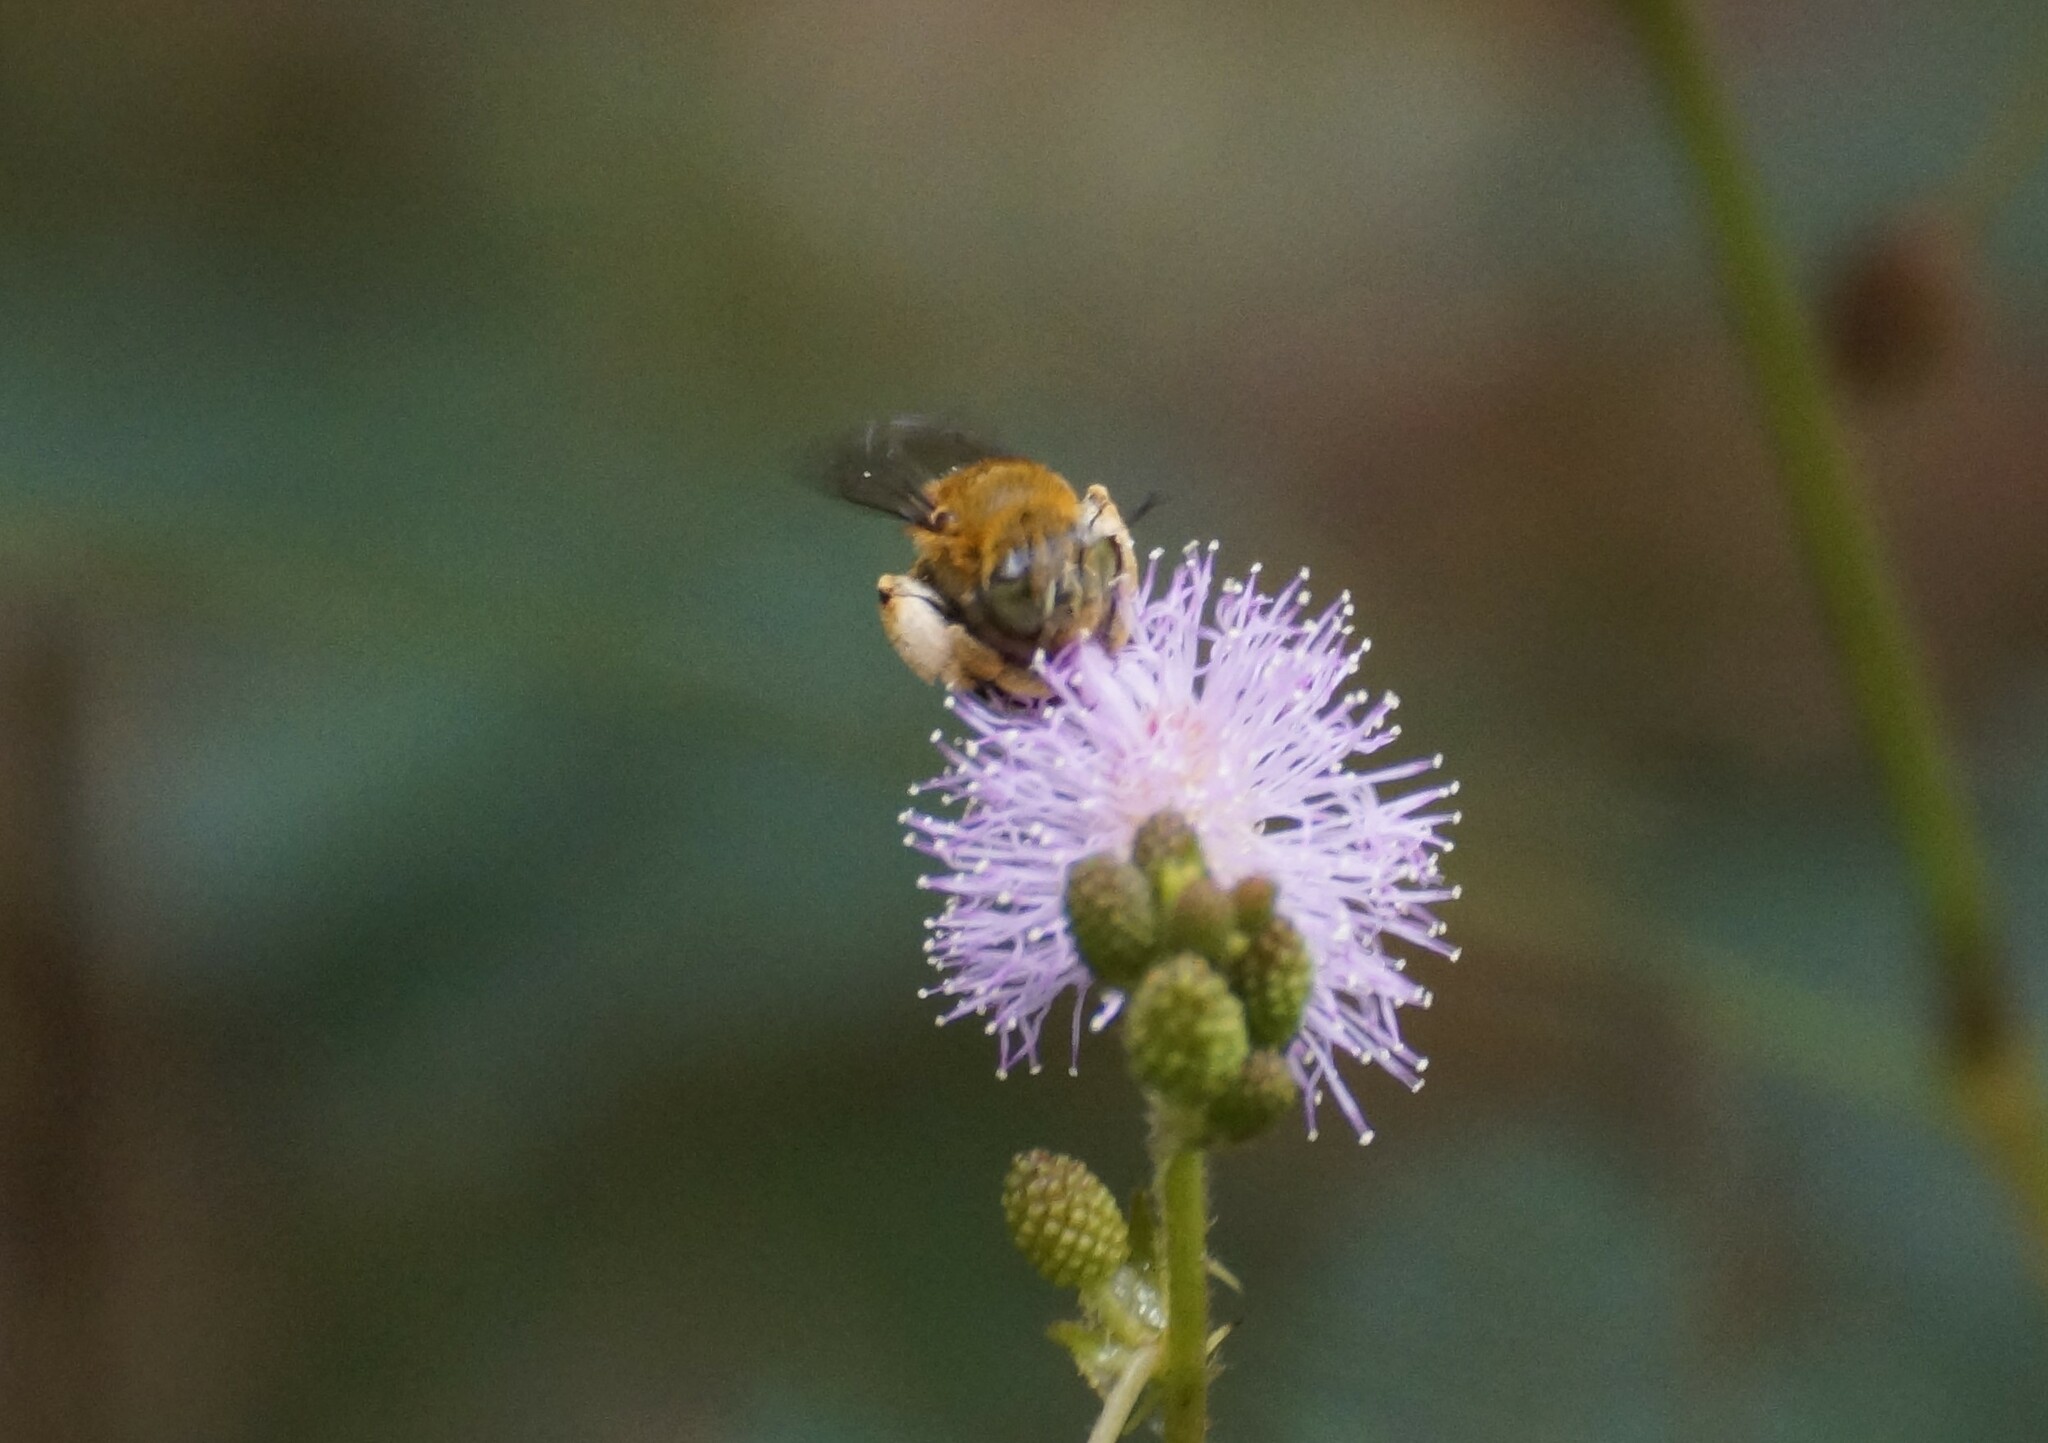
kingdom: Animalia
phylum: Arthropoda
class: Insecta
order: Hymenoptera
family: Apidae
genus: Amegilla
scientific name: Amegilla cingulata
